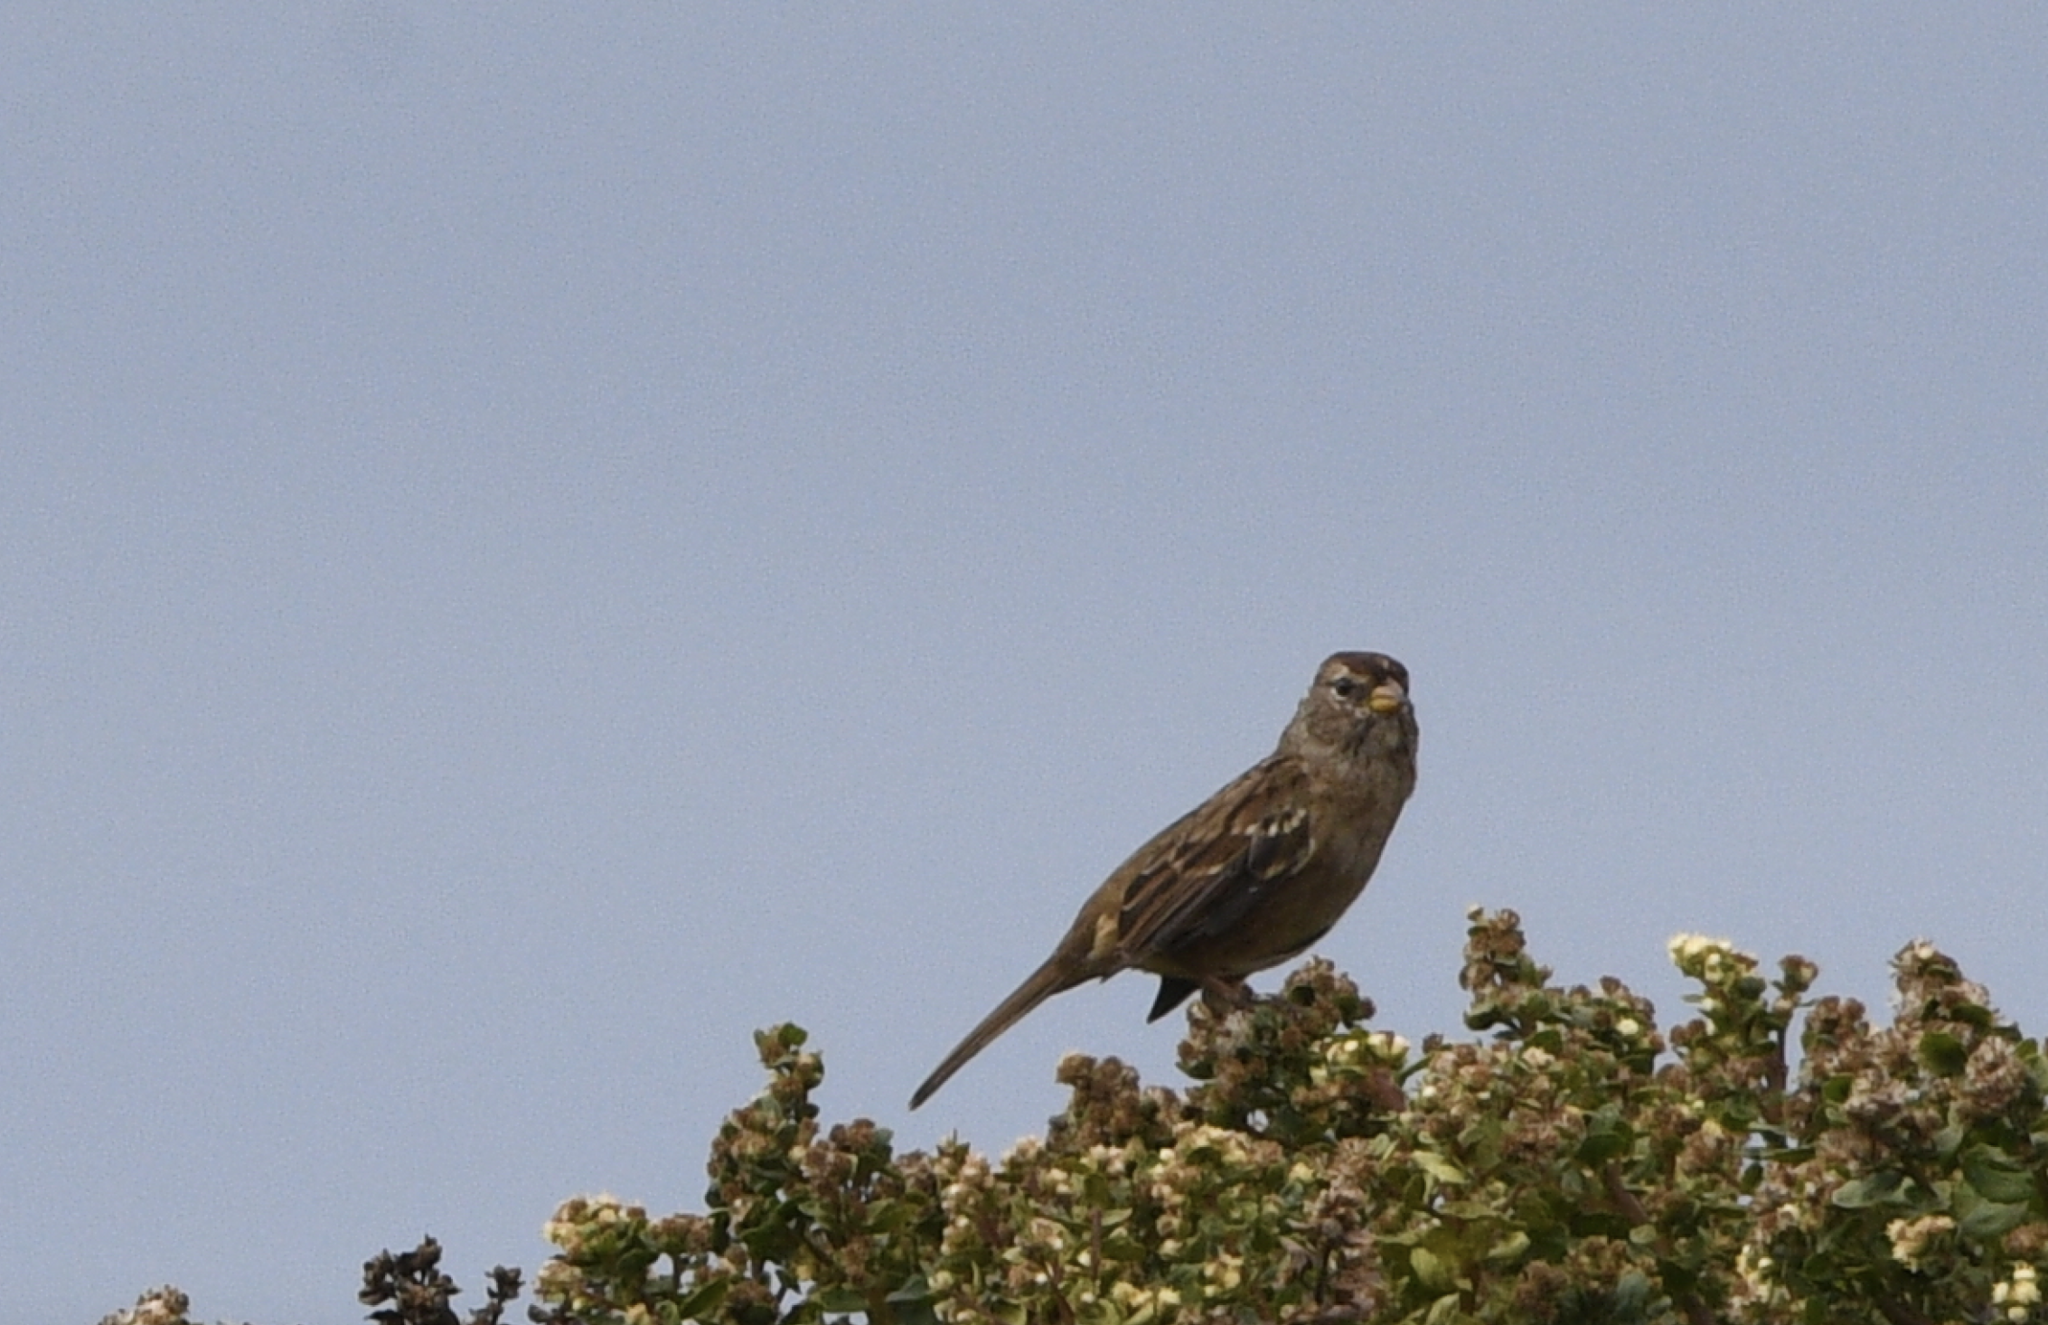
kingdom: Animalia
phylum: Chordata
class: Aves
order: Passeriformes
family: Passerellidae
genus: Zonotrichia
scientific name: Zonotrichia leucophrys
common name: White-crowned sparrow
